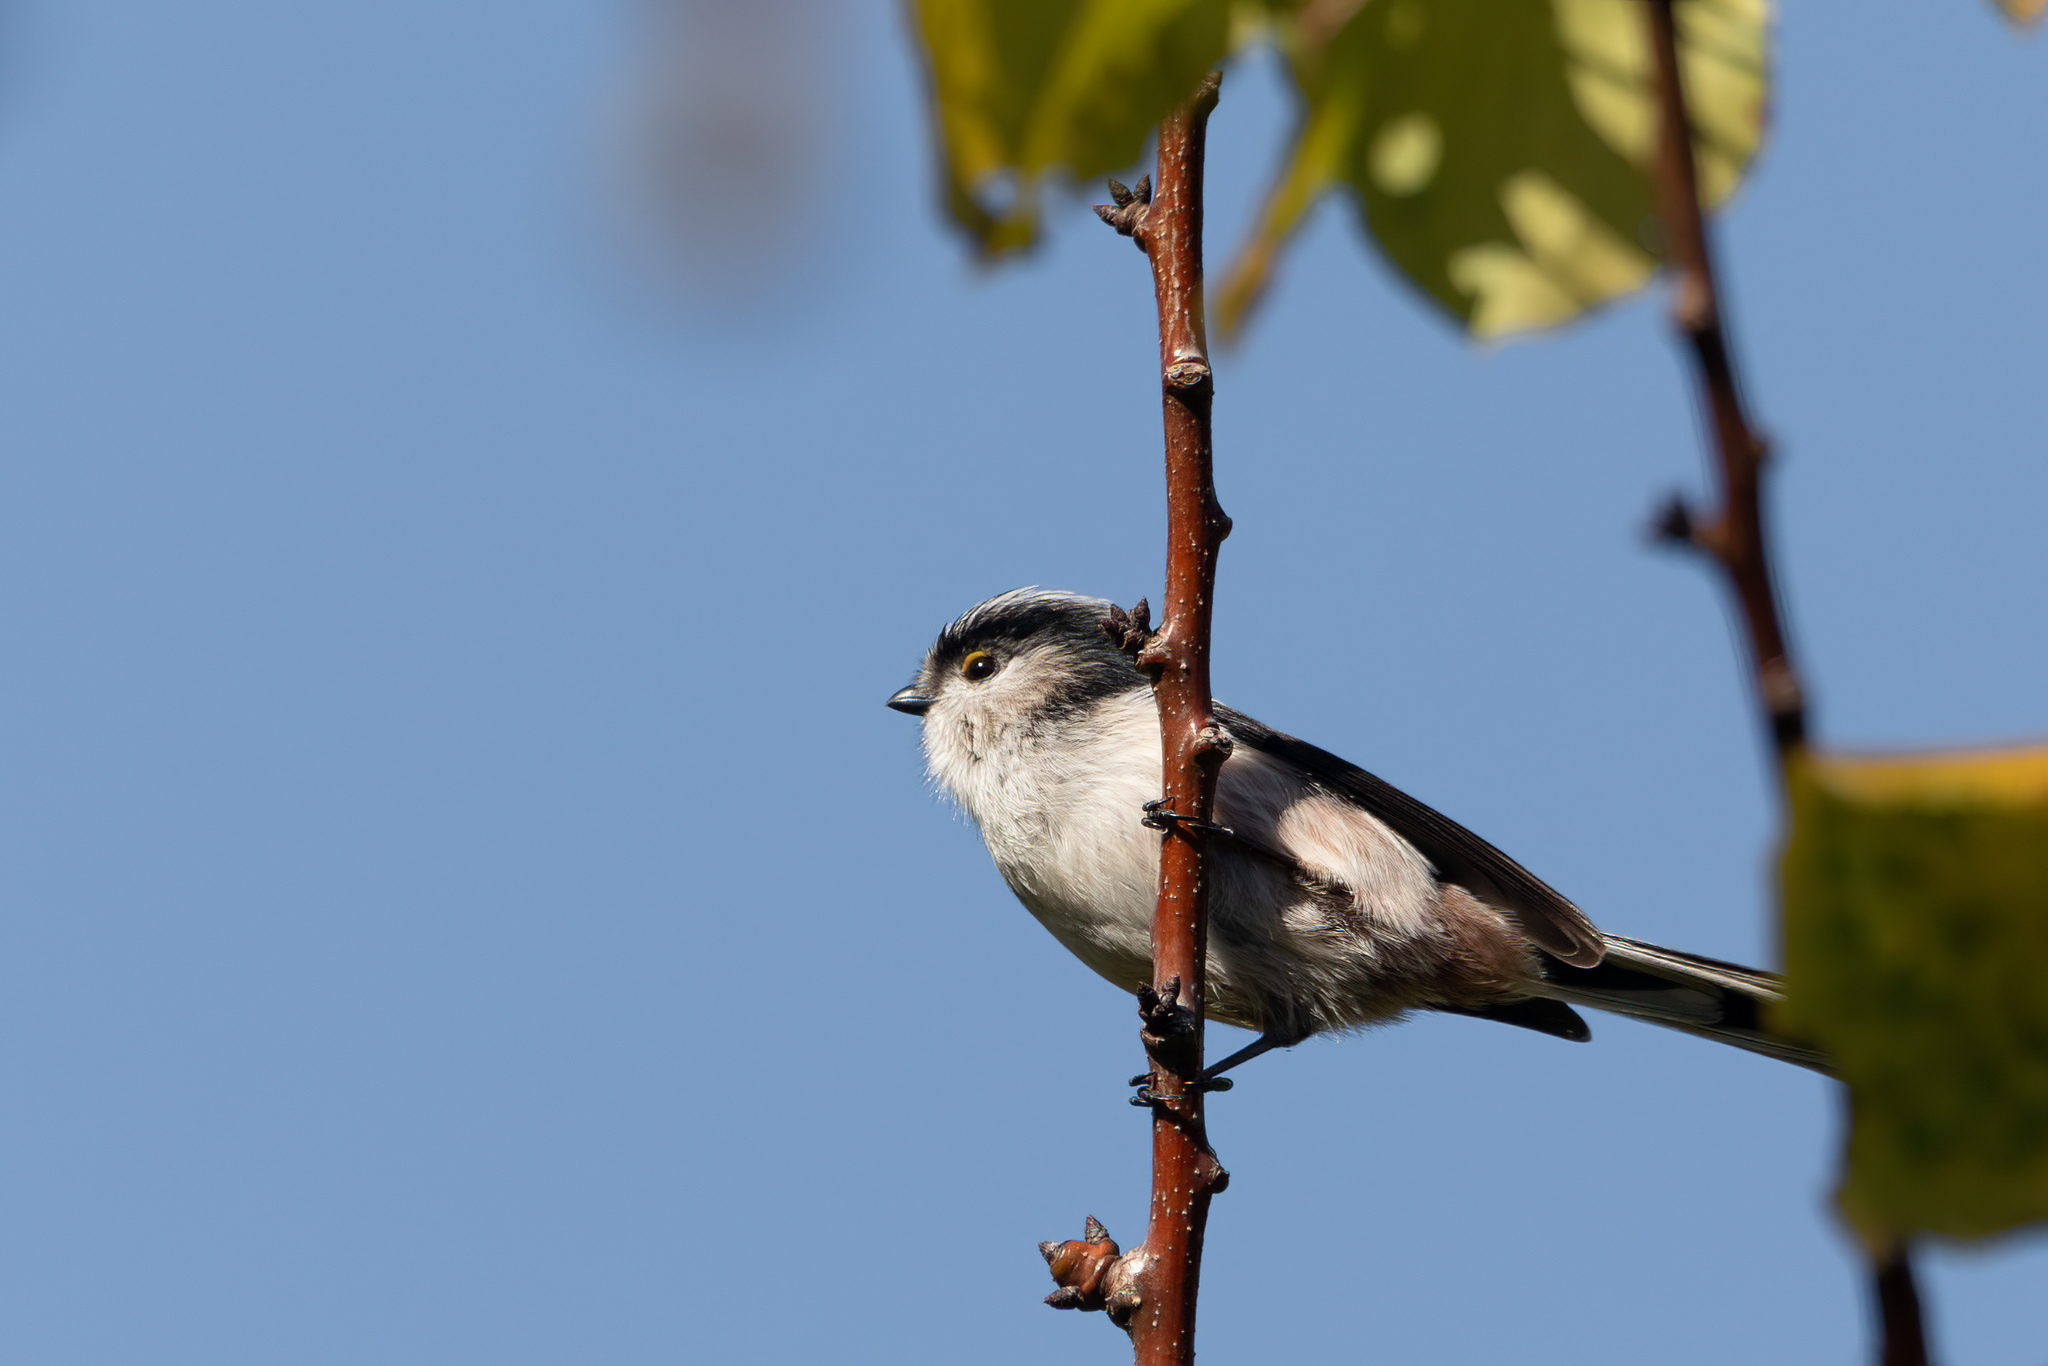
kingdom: Animalia
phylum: Chordata
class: Aves
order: Passeriformes
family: Aegithalidae
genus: Aegithalos
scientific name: Aegithalos caudatus
